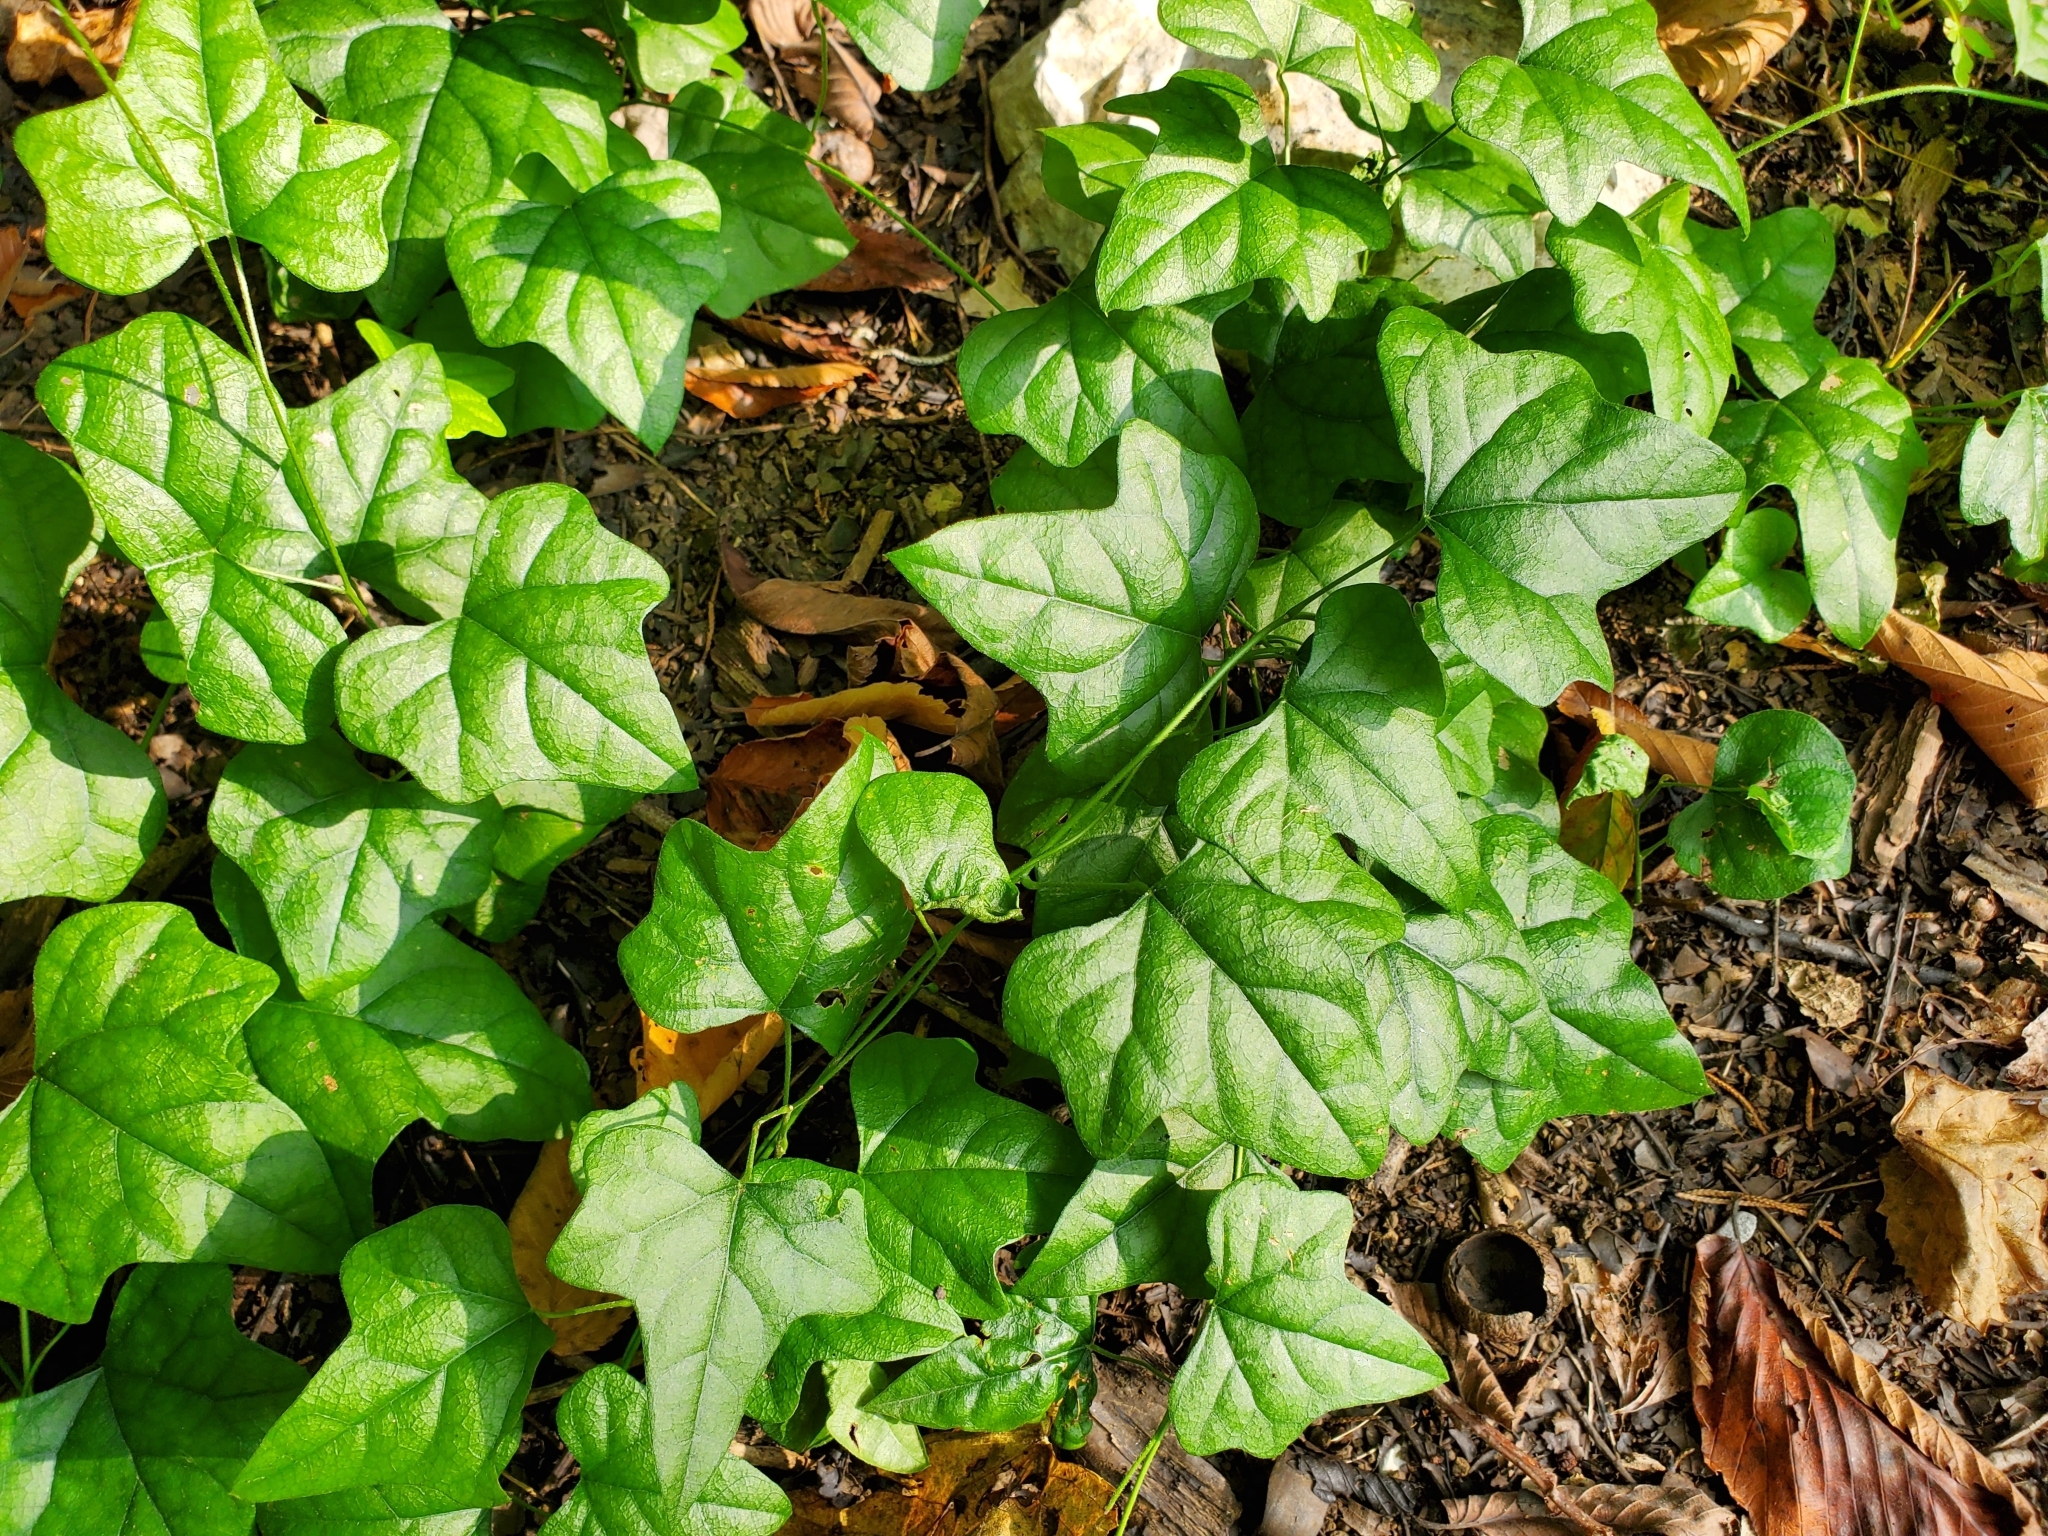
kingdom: Plantae
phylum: Tracheophyta
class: Magnoliopsida
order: Ranunculales
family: Menispermaceae
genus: Cocculus
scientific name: Cocculus carolinus
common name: Carolina moonseed
